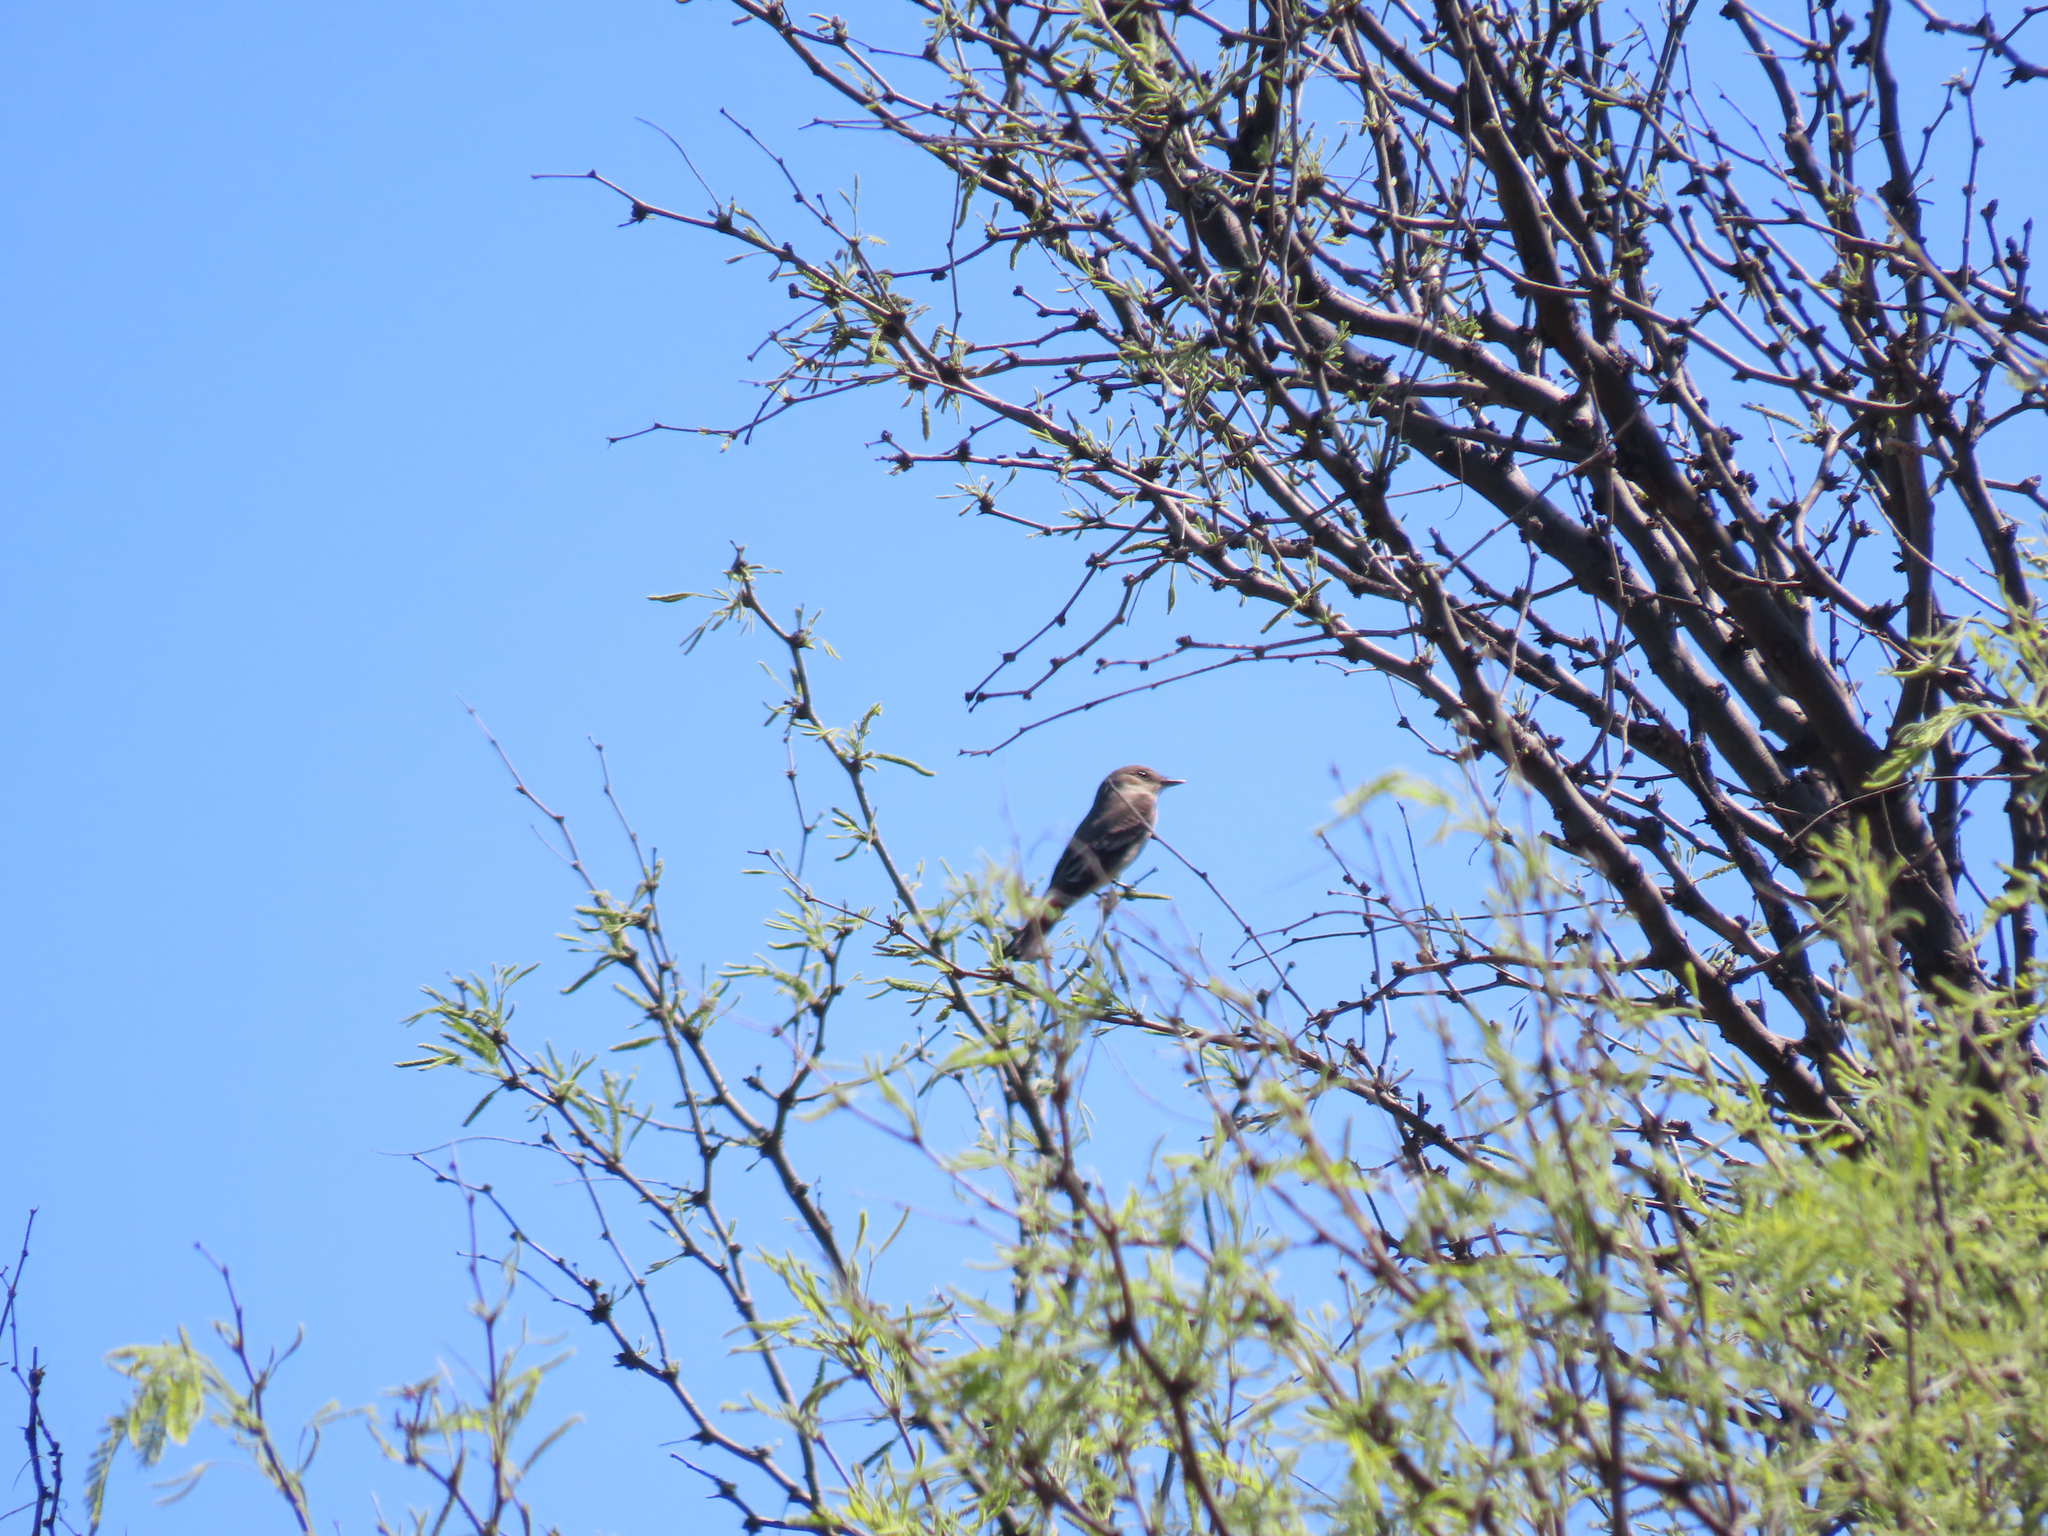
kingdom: Animalia
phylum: Chordata
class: Aves
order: Passeriformes
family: Tyrannidae
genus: Contopus
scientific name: Contopus sordidulus
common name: Western wood-pewee
